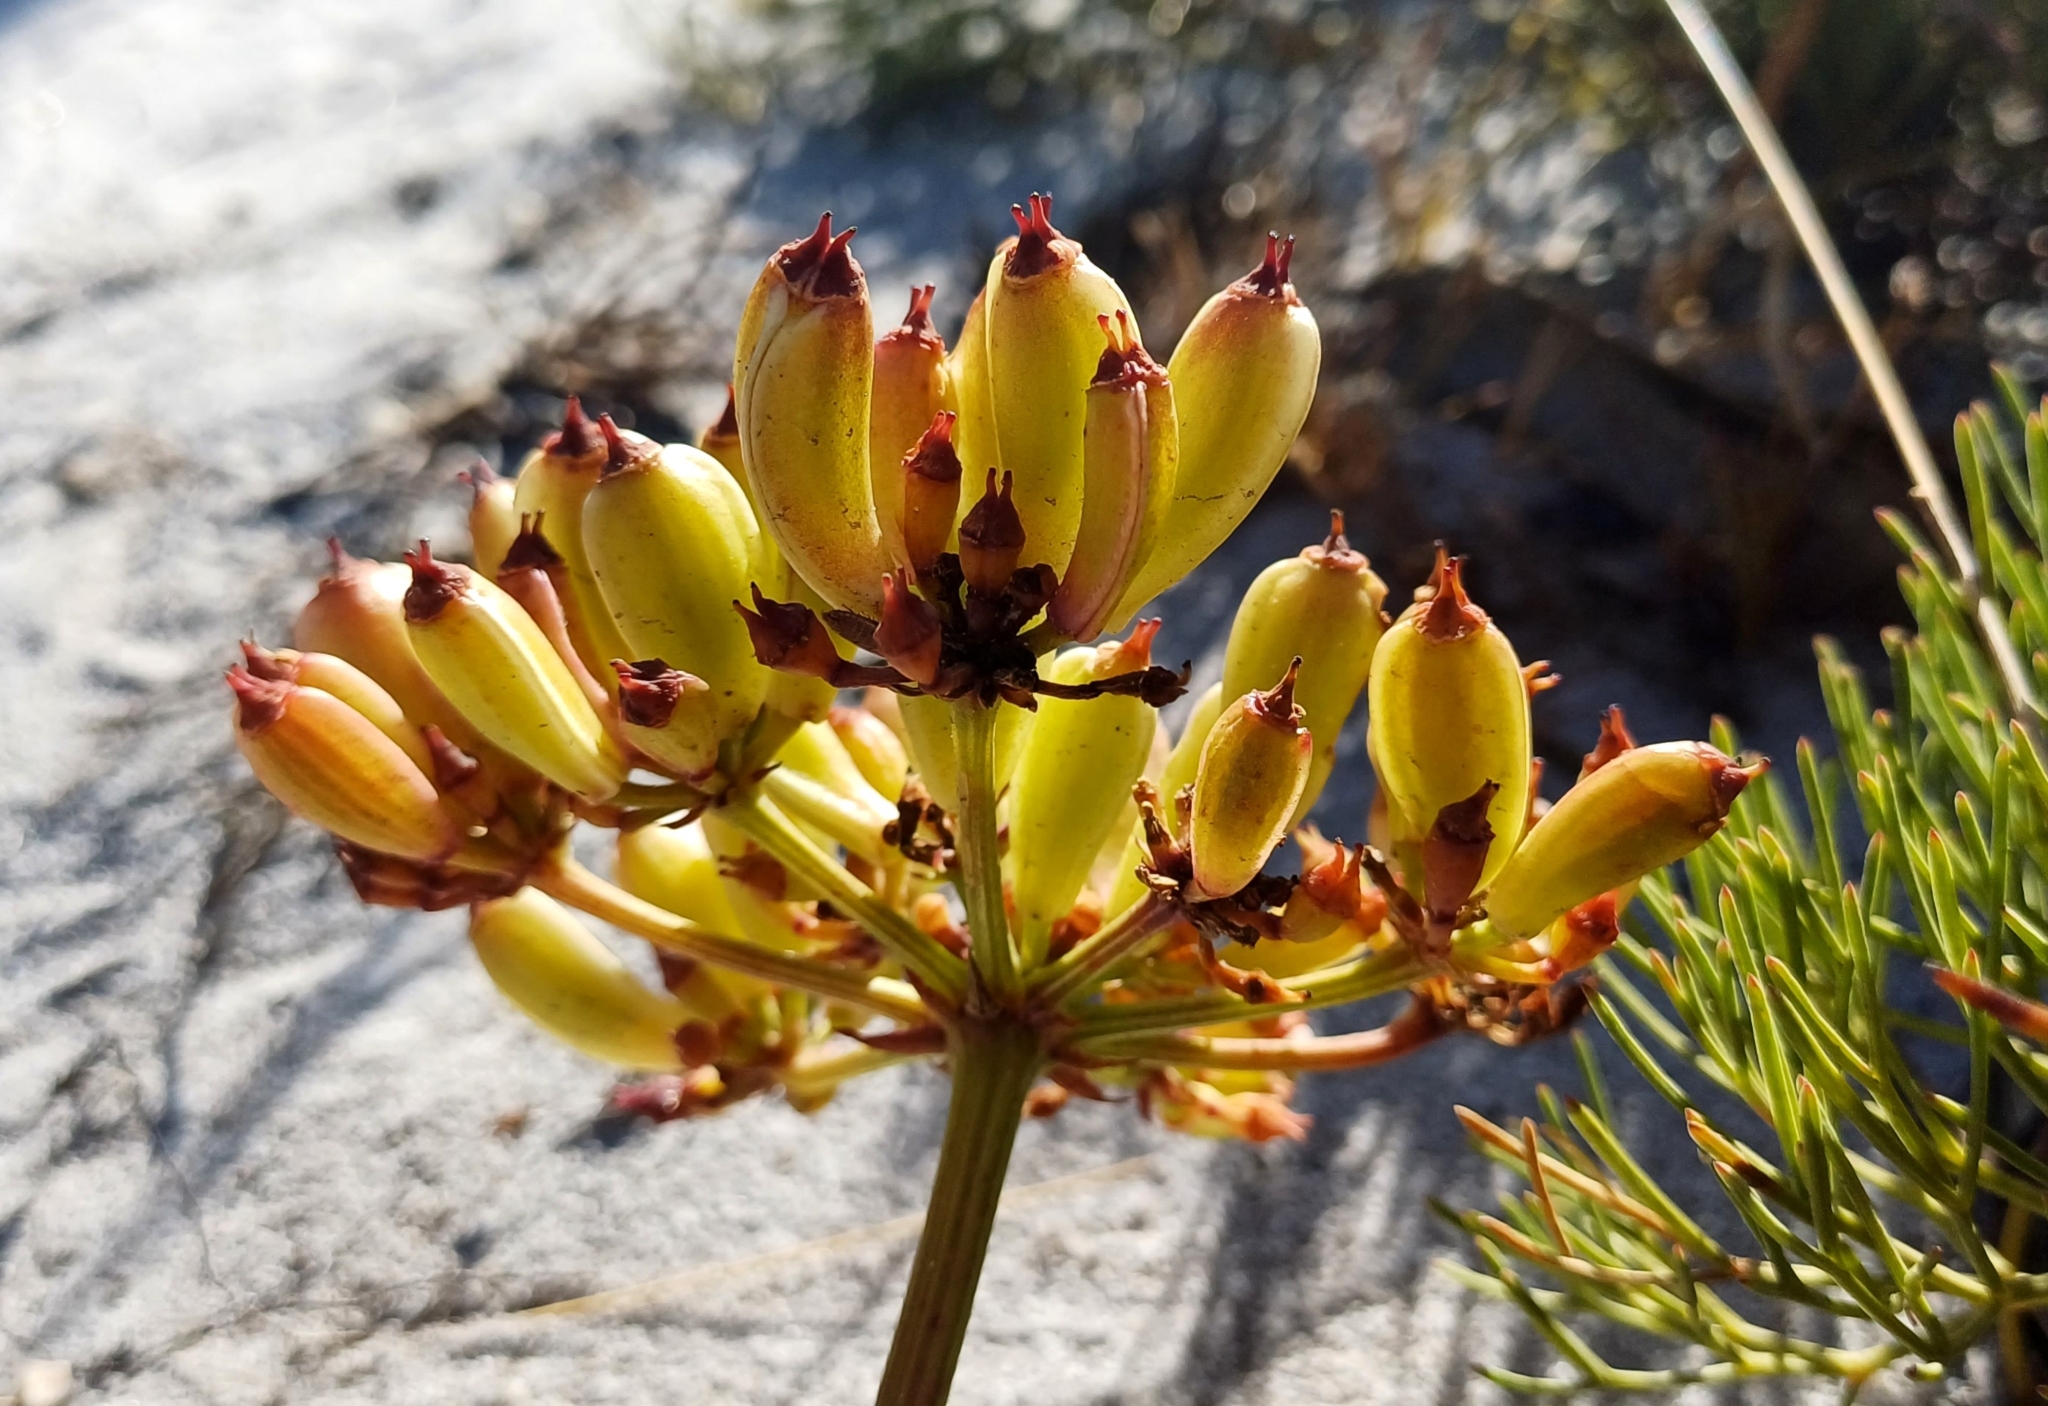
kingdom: Plantae
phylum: Tracheophyta
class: Magnoliopsida
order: Apiales
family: Apiaceae
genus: Nanobubon
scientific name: Nanobubon strictum
